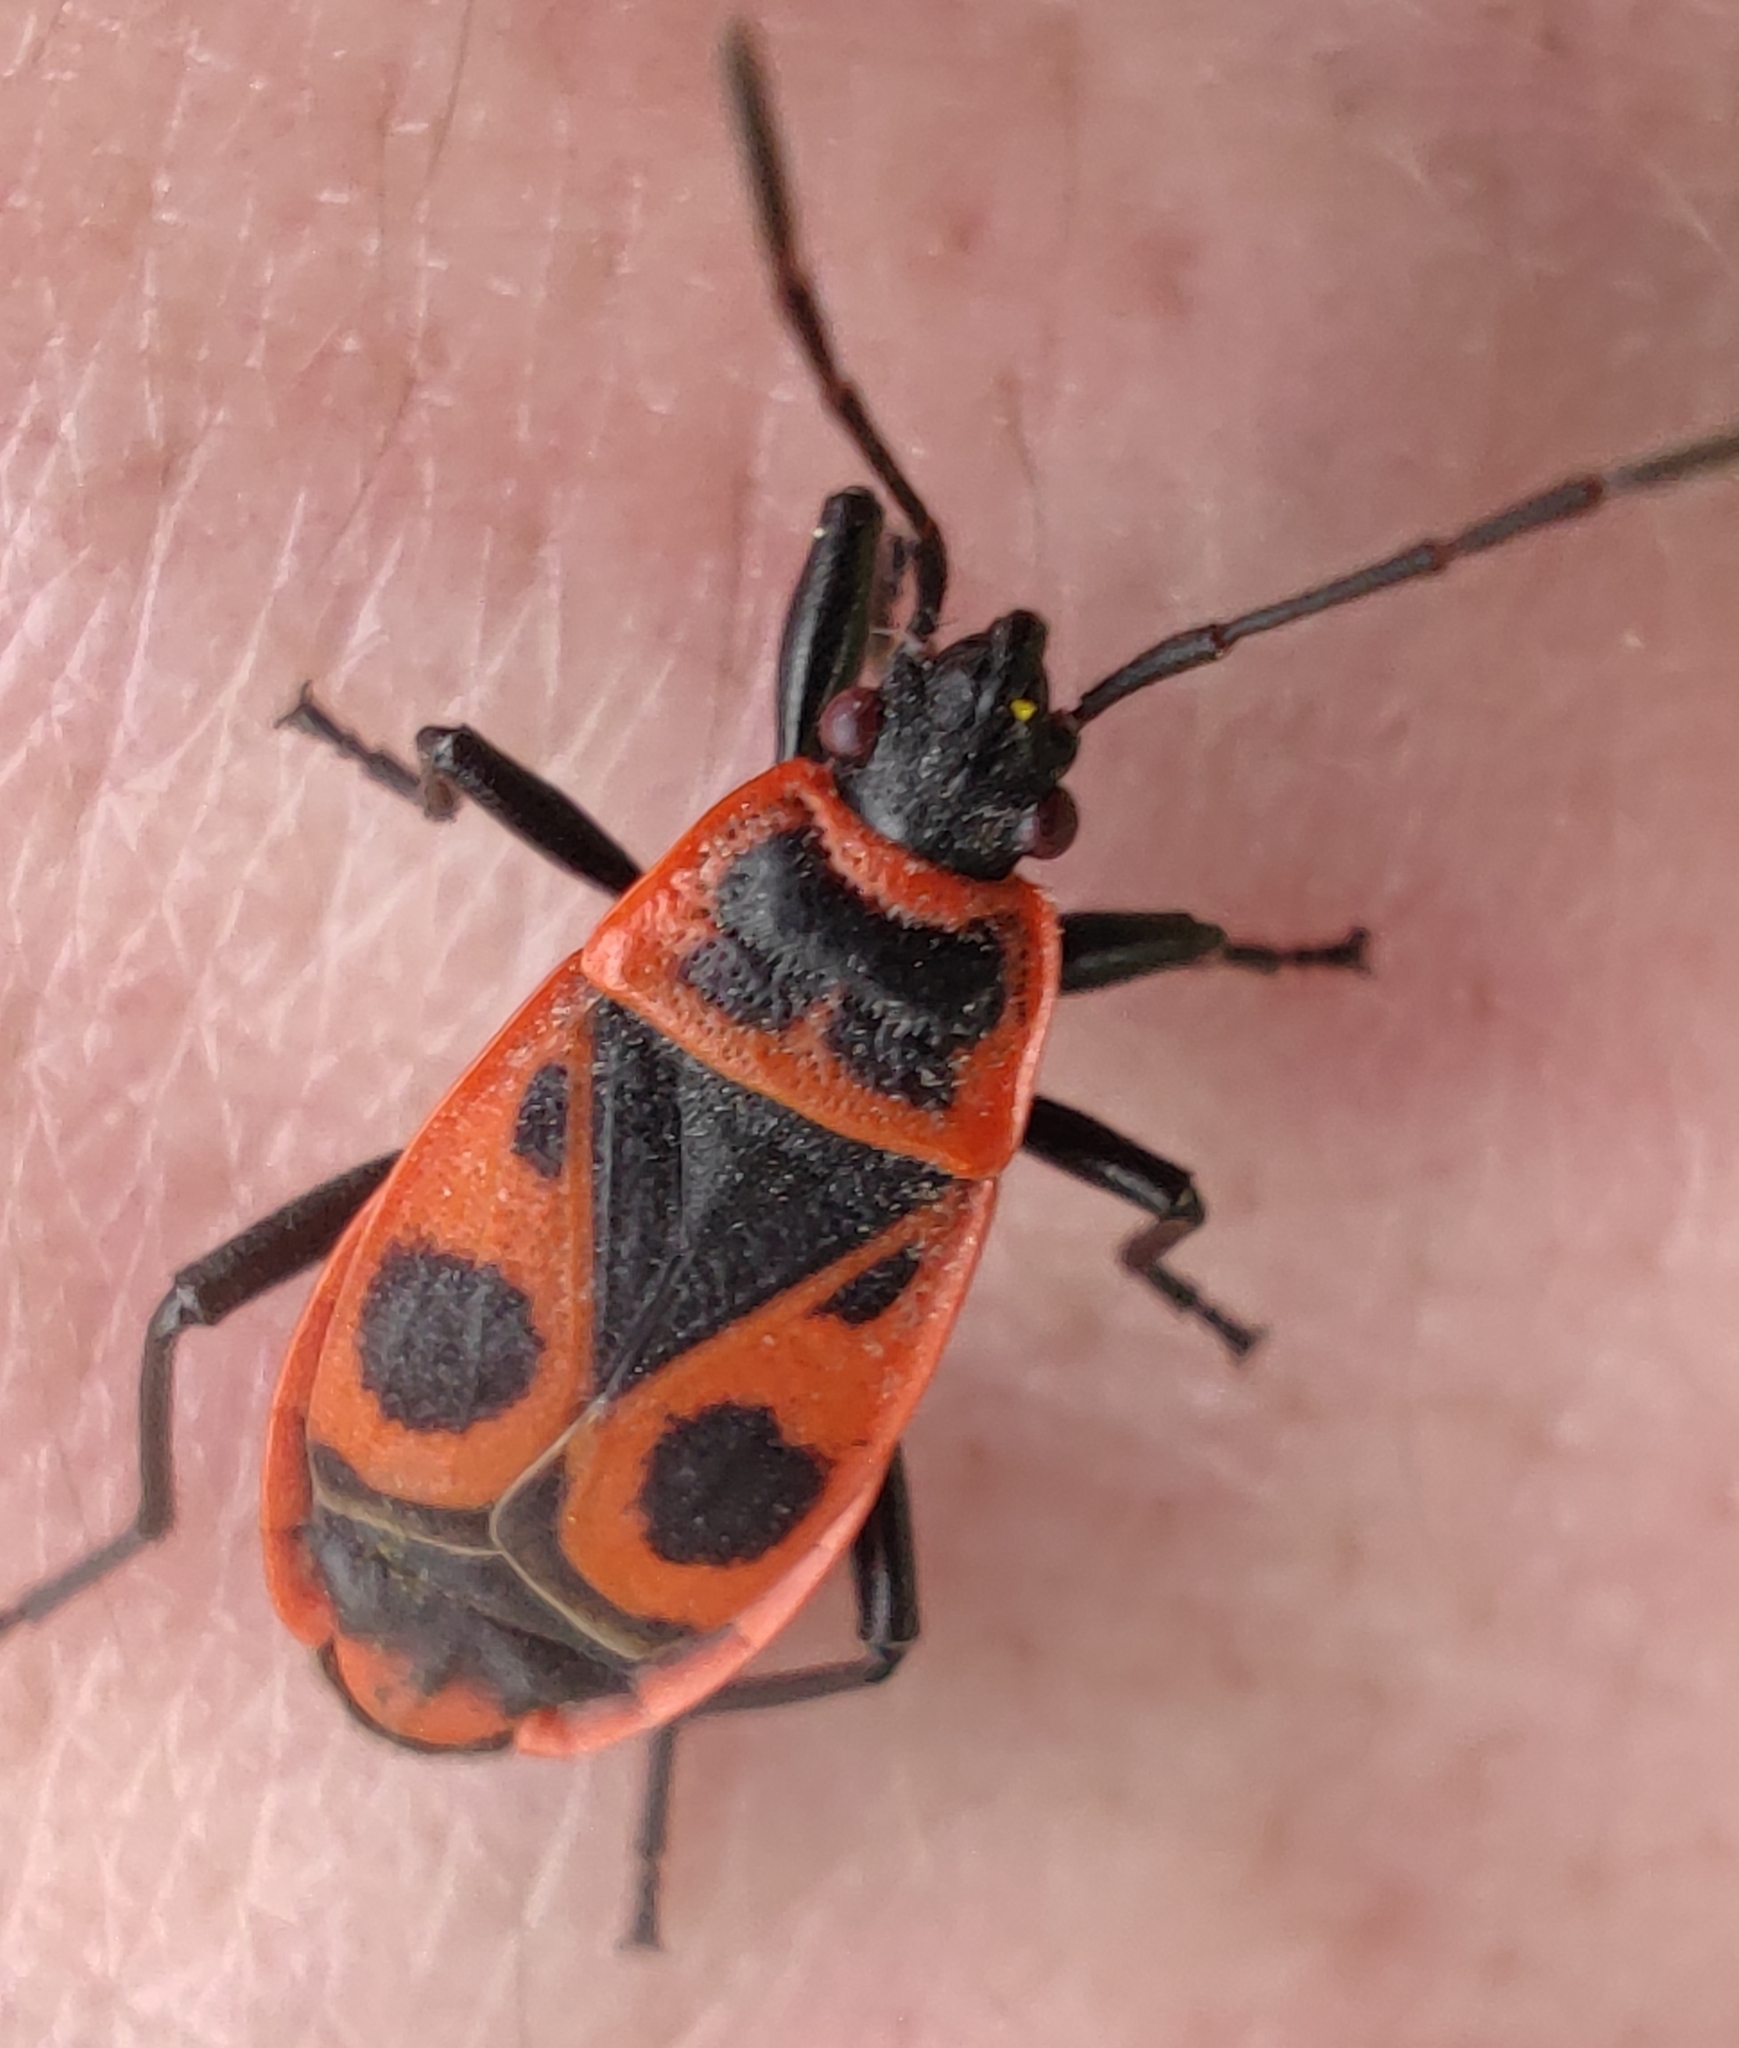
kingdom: Animalia
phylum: Arthropoda
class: Insecta
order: Hemiptera
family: Pyrrhocoridae
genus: Pyrrhocoris
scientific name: Pyrrhocoris apterus
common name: Firebug
